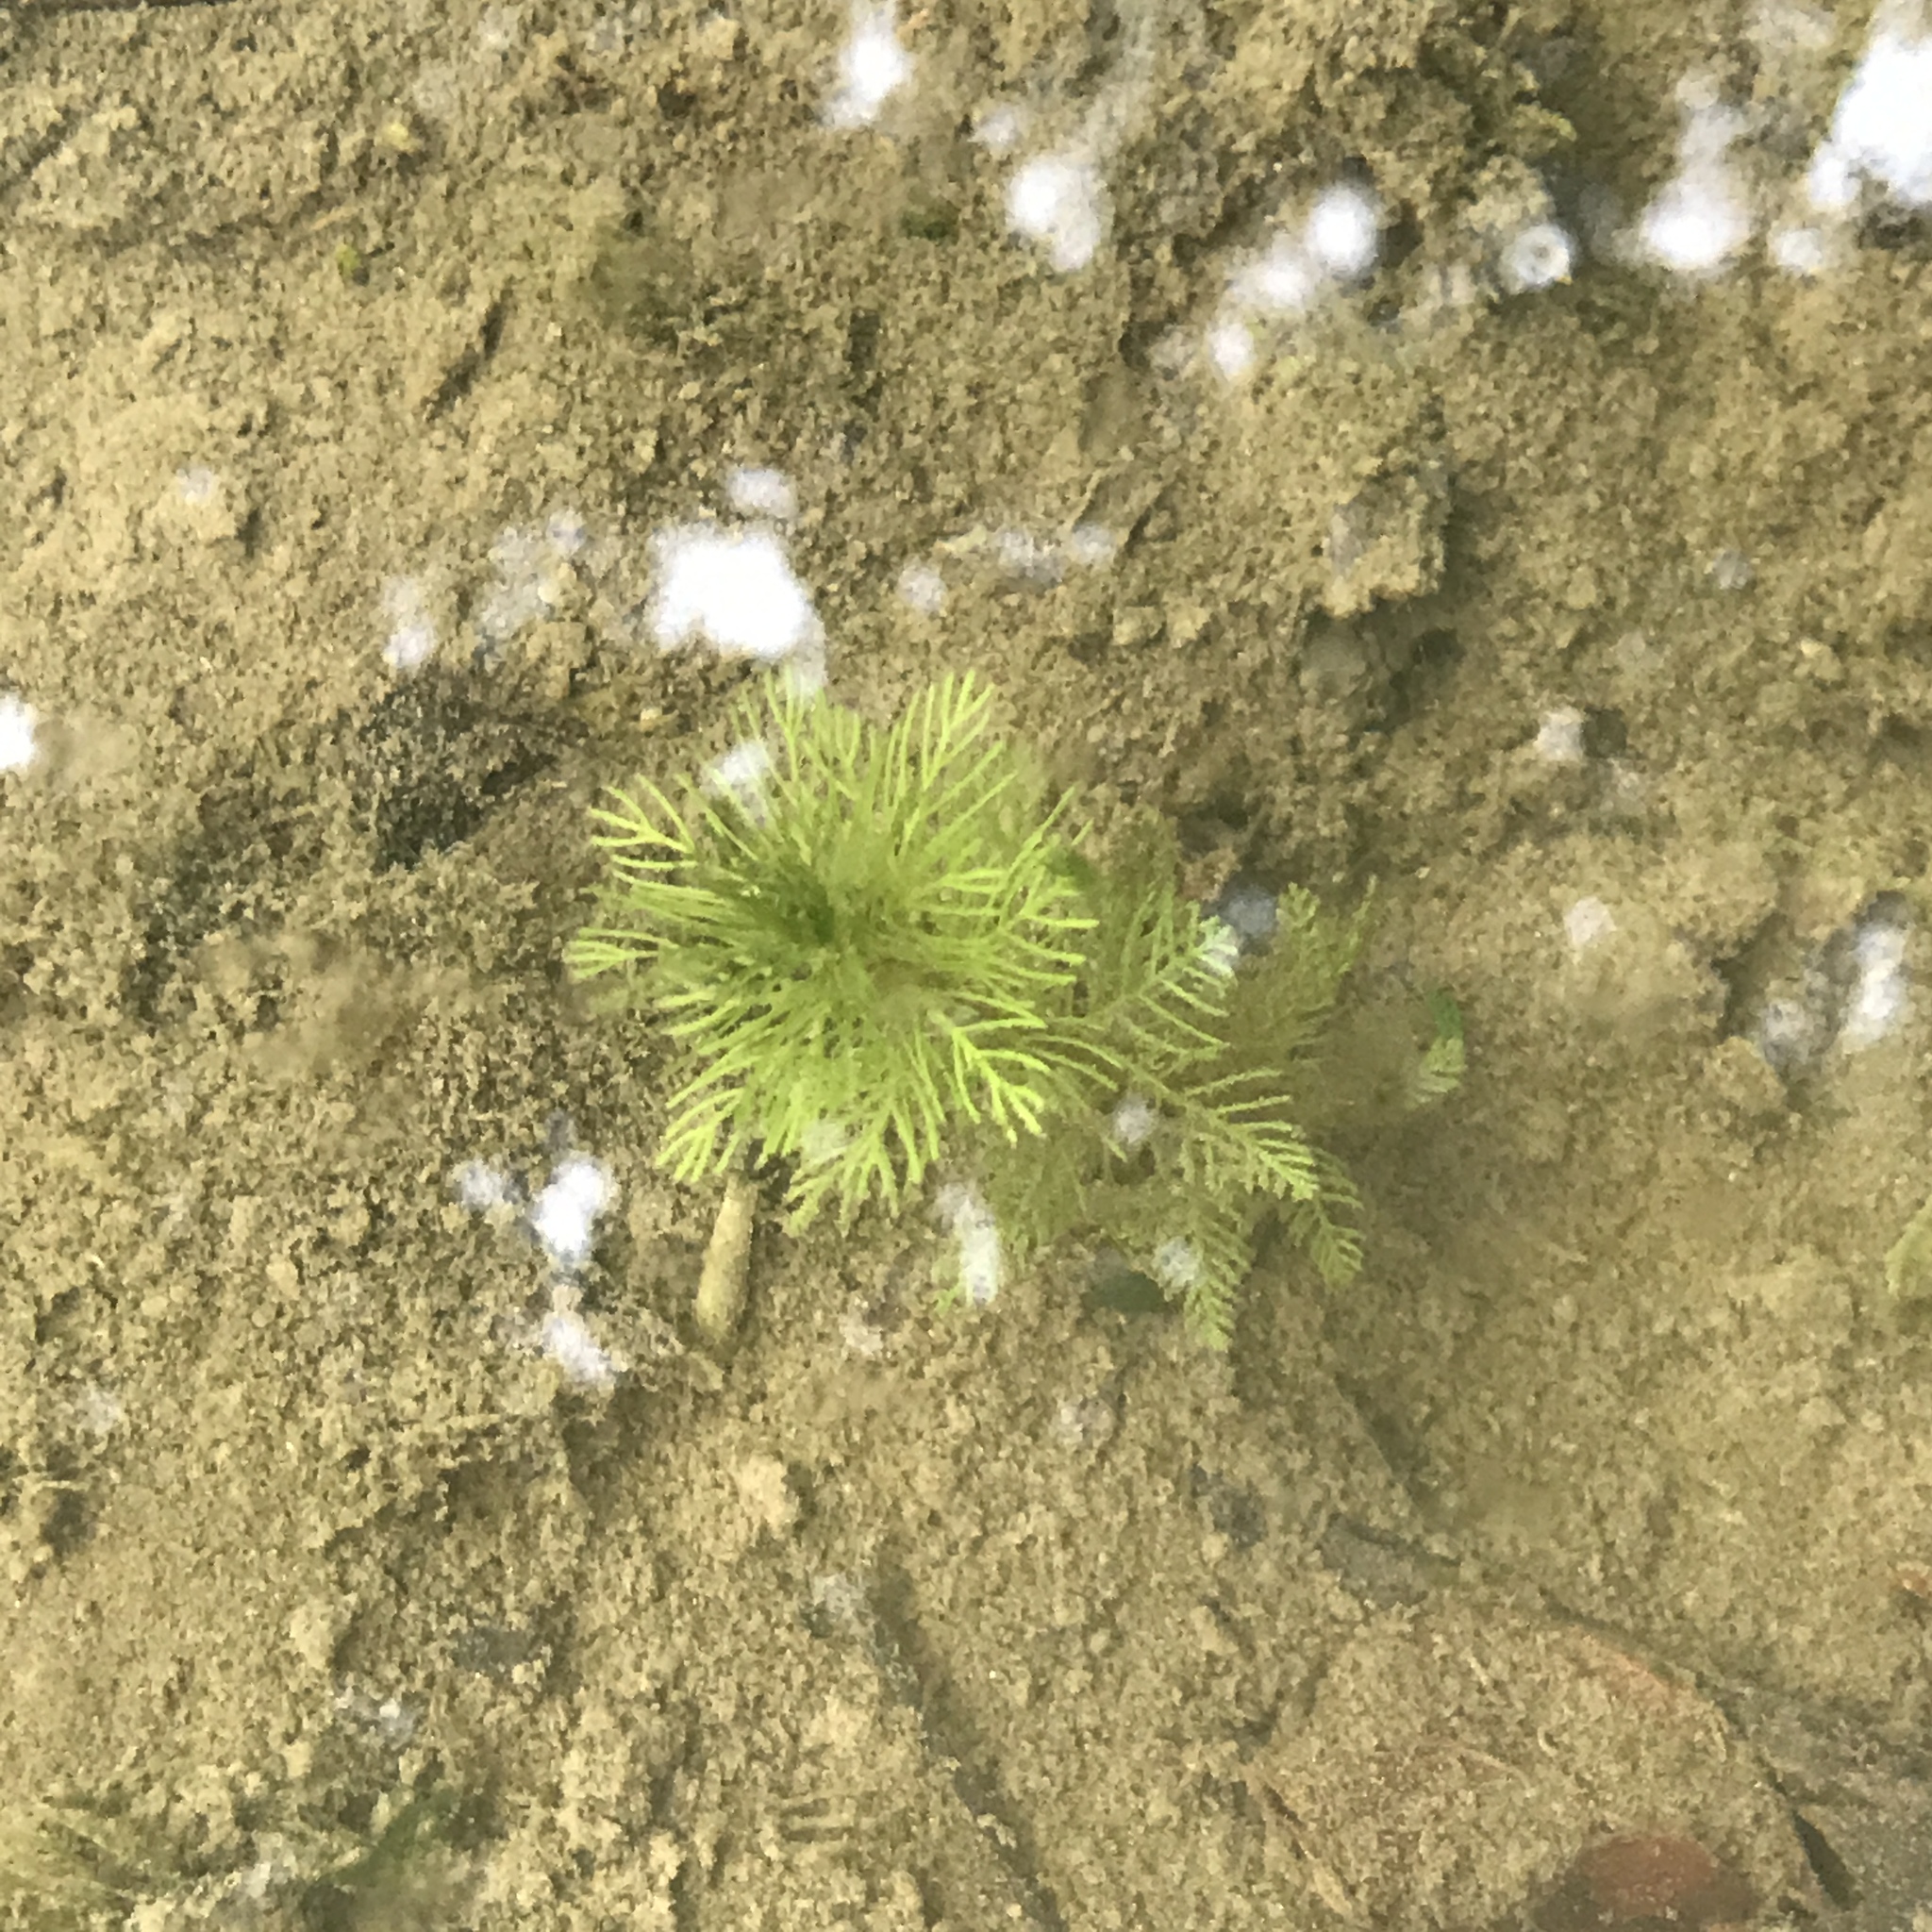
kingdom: Plantae
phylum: Tracheophyta
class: Magnoliopsida
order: Saxifragales
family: Haloragaceae
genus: Myriophyllum
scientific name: Myriophyllum
